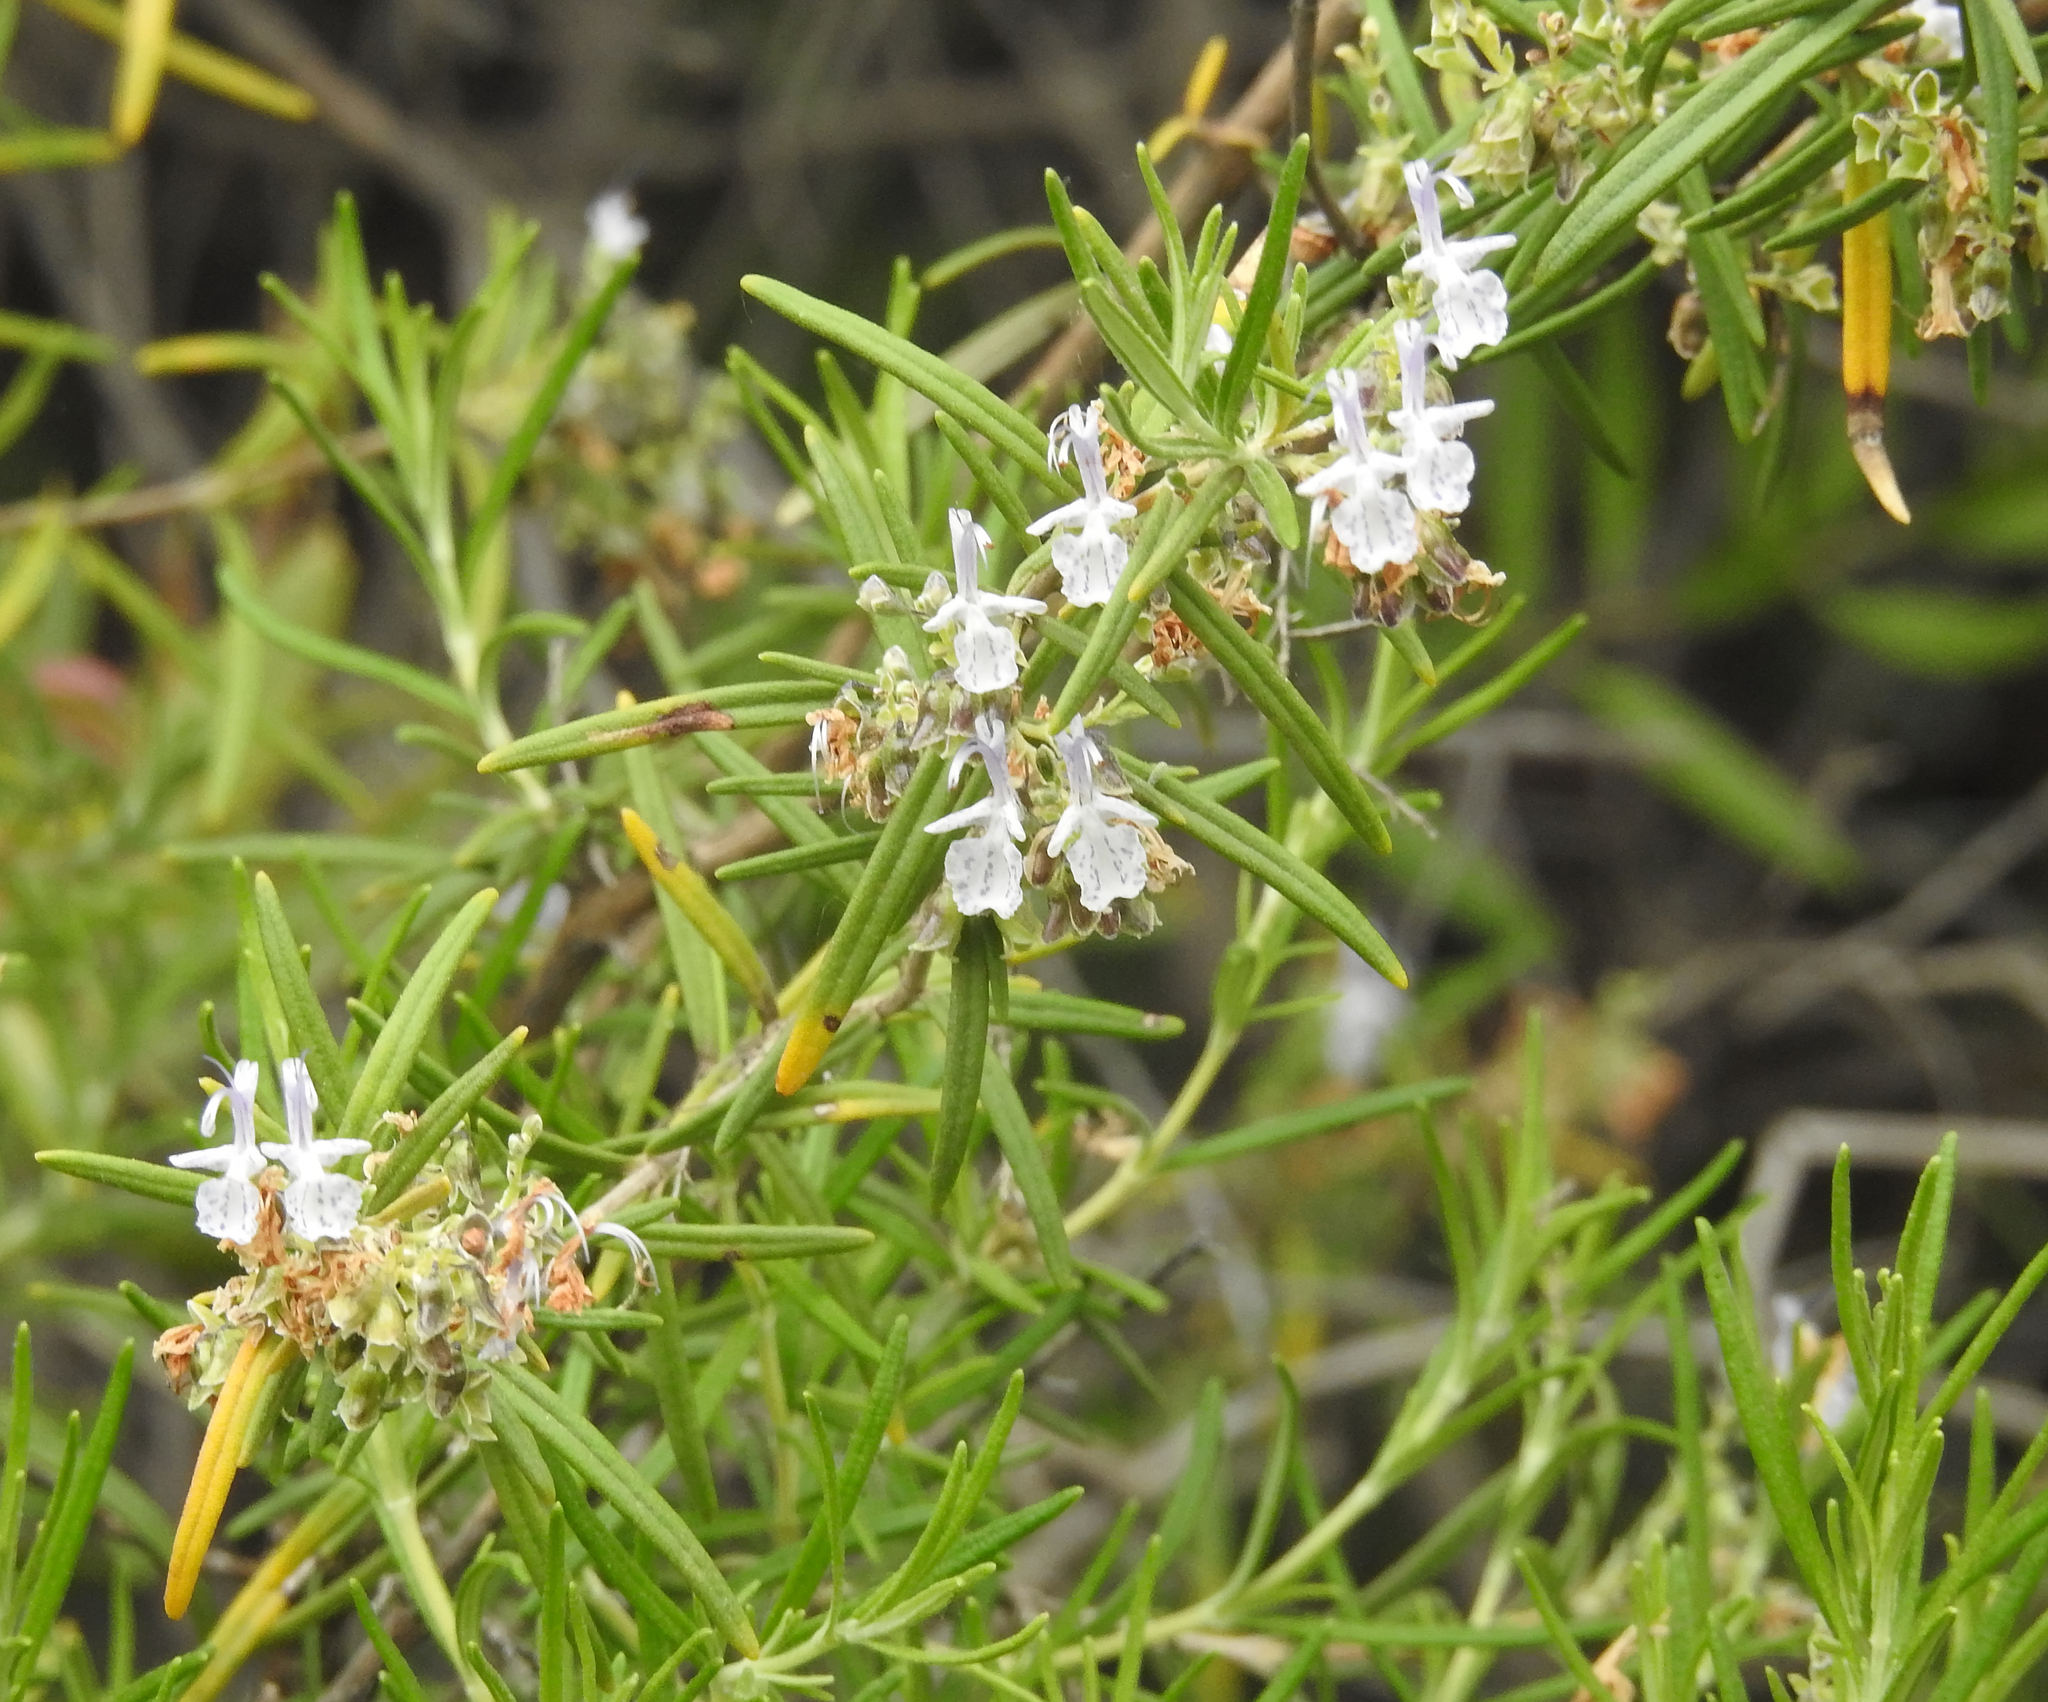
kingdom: Plantae
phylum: Tracheophyta
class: Magnoliopsida
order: Lamiales
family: Lamiaceae
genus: Salvia
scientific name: Salvia rosmarinus
